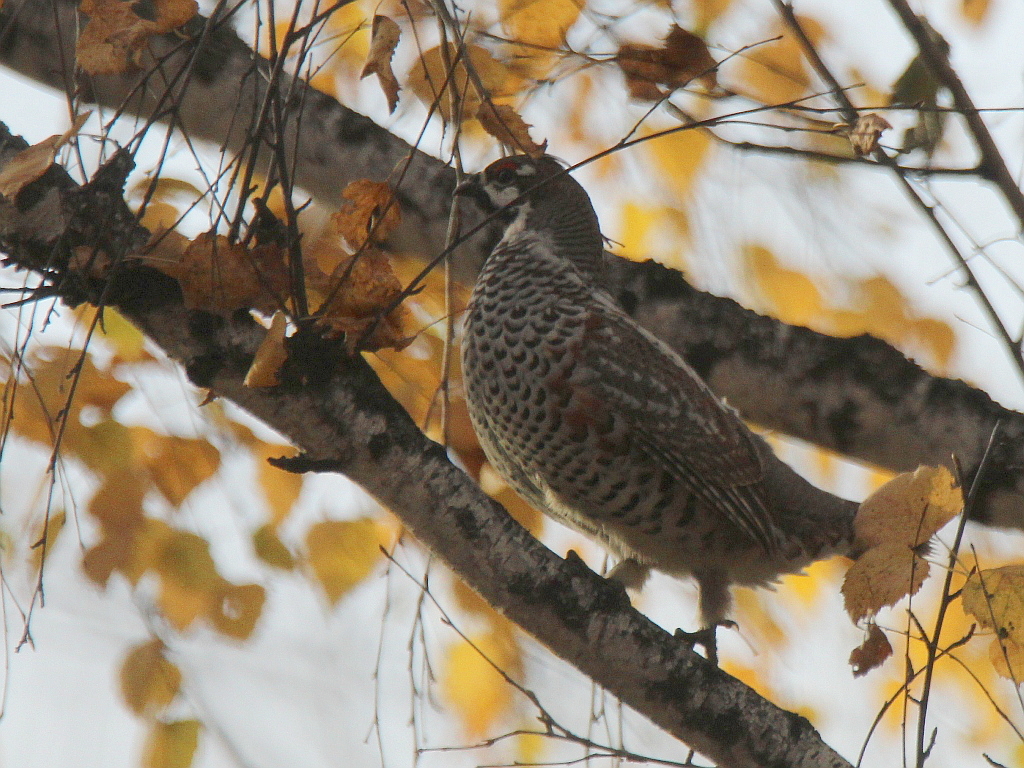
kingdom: Animalia
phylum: Chordata
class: Aves
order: Galliformes
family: Phasianidae
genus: Tetrastes
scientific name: Tetrastes bonasia
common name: Hazel grouse
